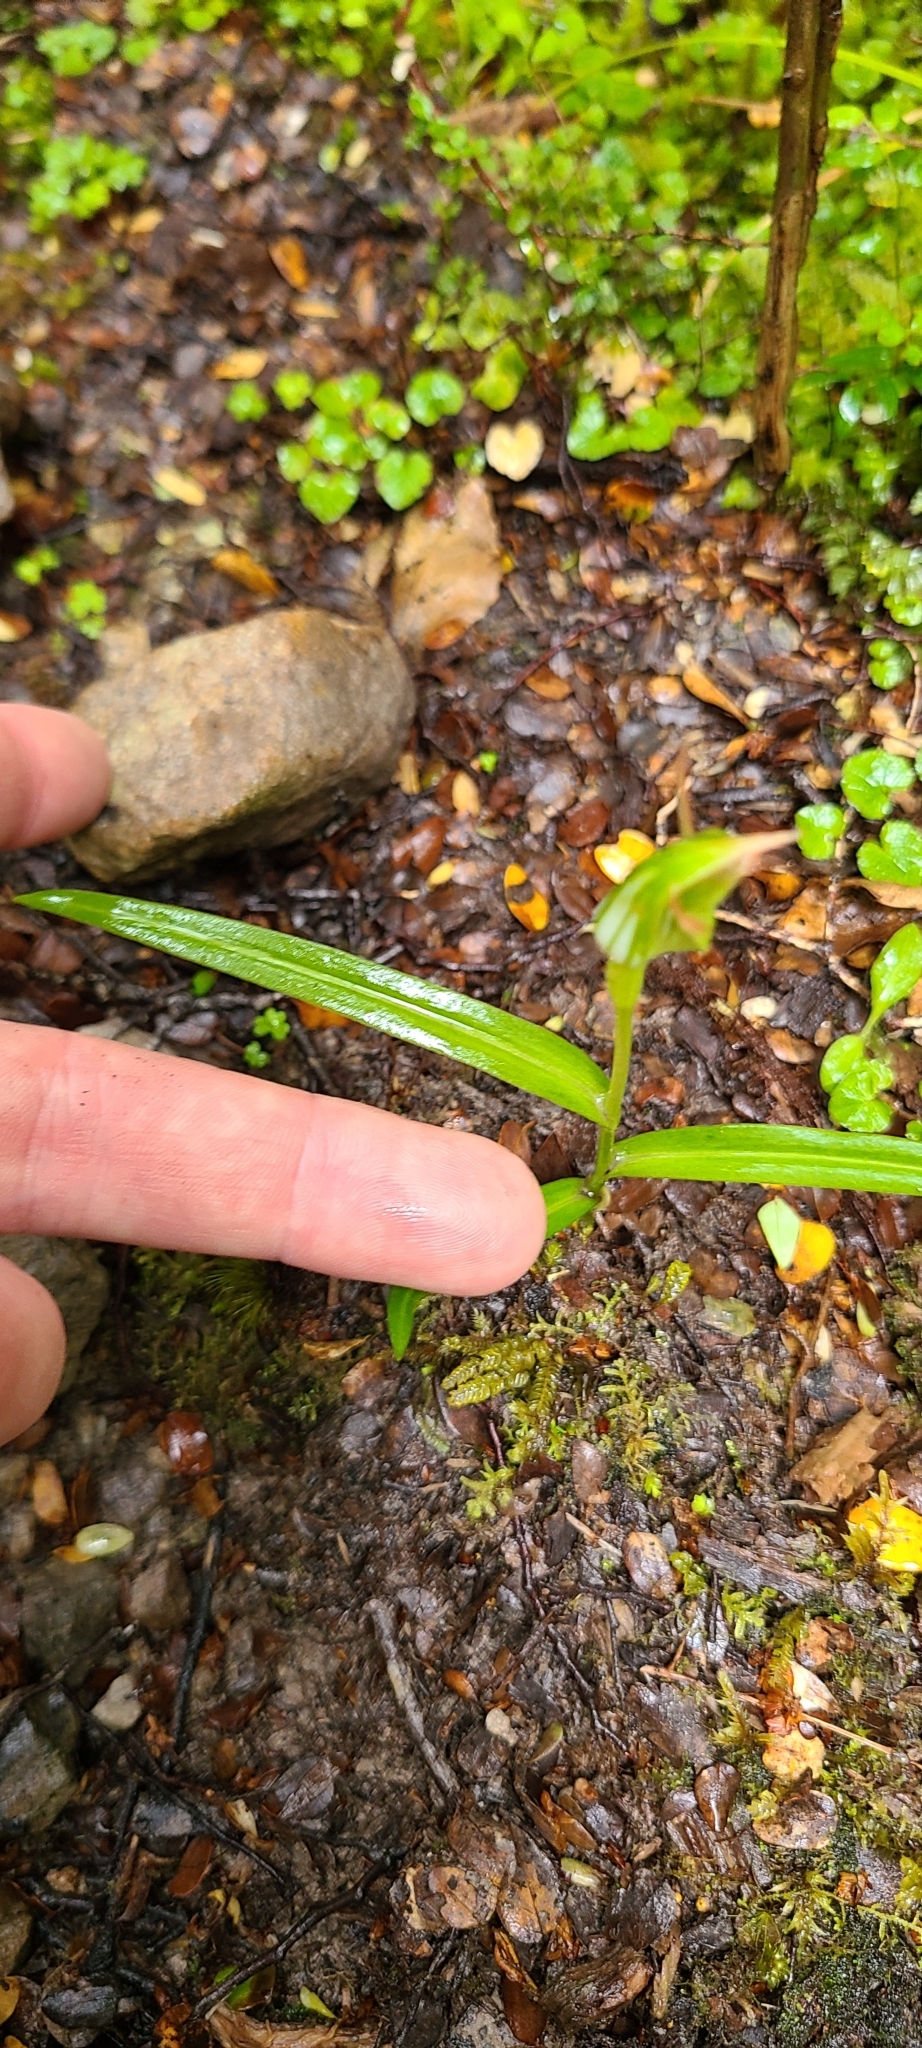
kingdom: Plantae
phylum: Tracheophyta
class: Liliopsida
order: Asparagales
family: Orchidaceae
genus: Pterostylis
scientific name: Pterostylis montana
